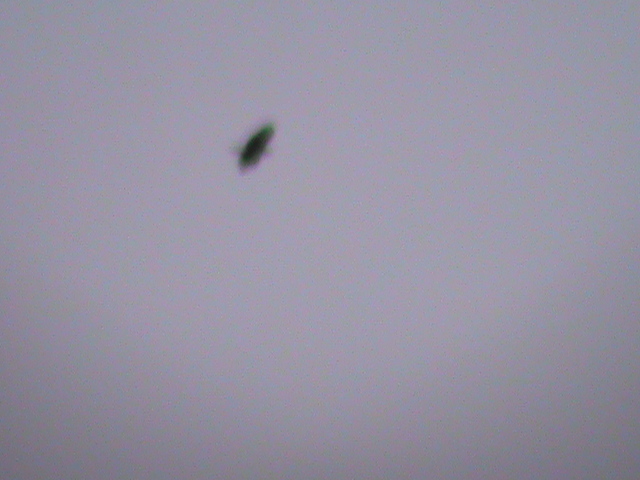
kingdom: Animalia
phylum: Chordata
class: Aves
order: Accipitriformes
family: Accipitridae
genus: Lophotriorchis
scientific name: Lophotriorchis kienerii
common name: Rufous-bellied eagle
